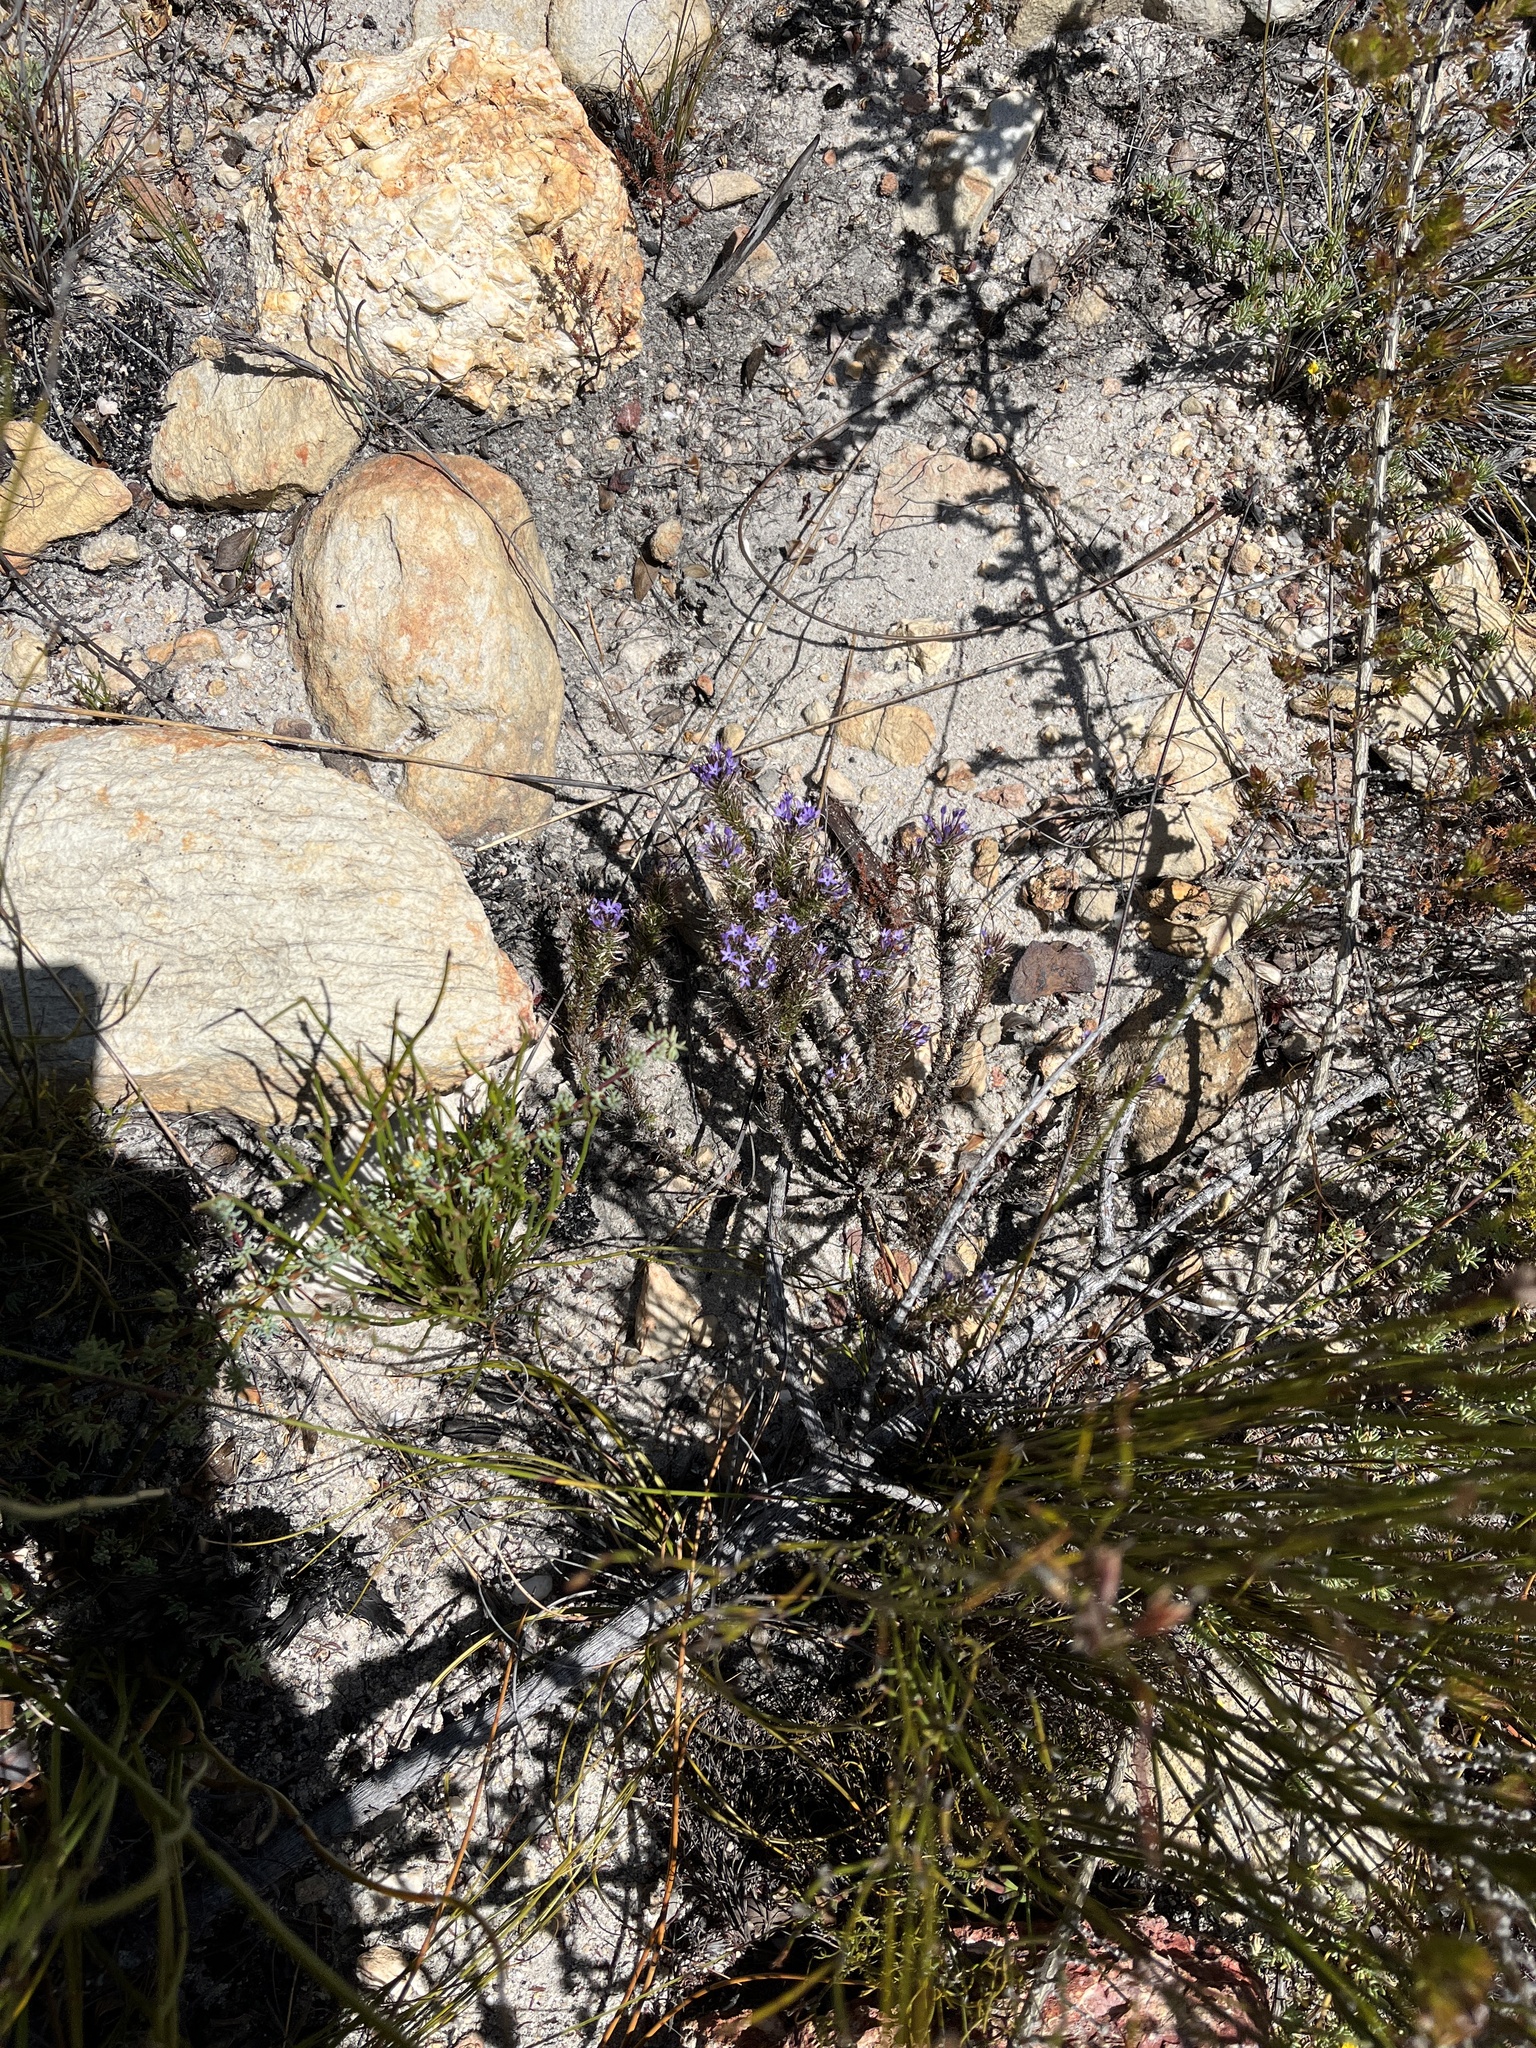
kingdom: Plantae
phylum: Tracheophyta
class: Magnoliopsida
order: Asterales
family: Campanulaceae
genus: Merciera
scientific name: Merciera eckloniana
